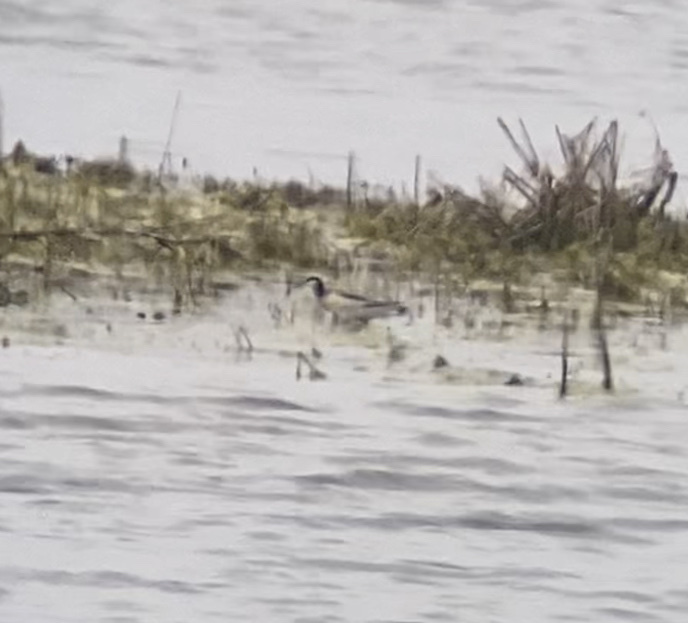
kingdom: Animalia
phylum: Chordata
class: Aves
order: Charadriiformes
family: Scolopacidae
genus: Phalaropus
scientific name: Phalaropus tricolor
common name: Wilson's phalarope
